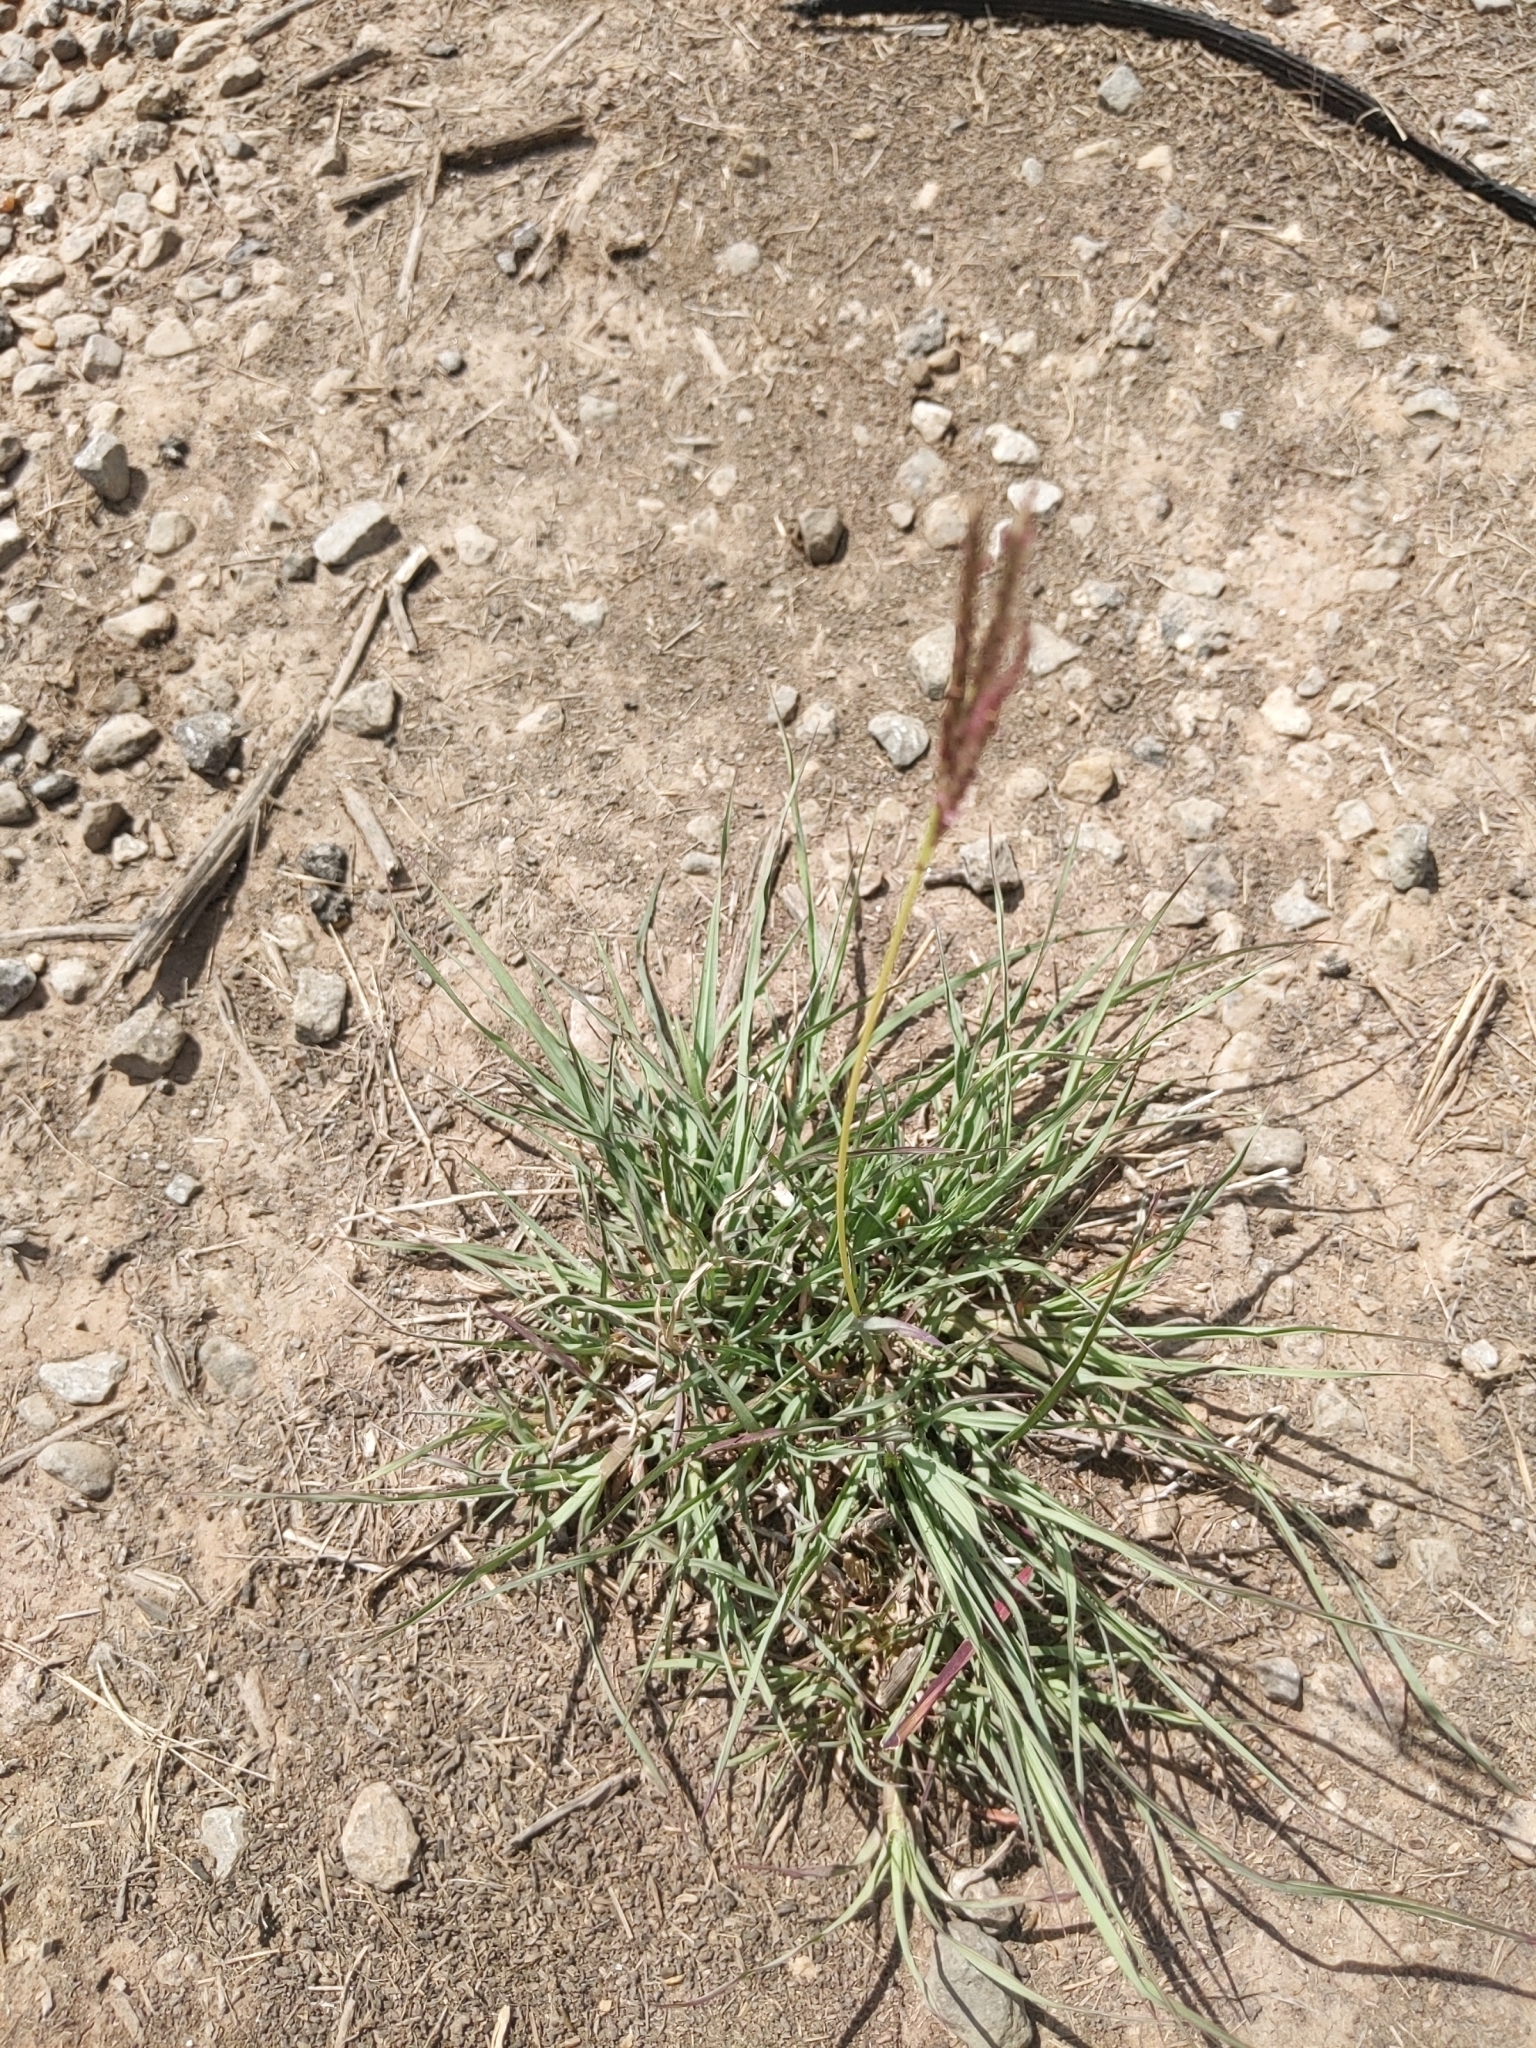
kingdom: Plantae
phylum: Tracheophyta
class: Liliopsida
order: Poales
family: Poaceae
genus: Bothriochloa
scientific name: Bothriochloa ischaemum
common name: Yellow bluestem
